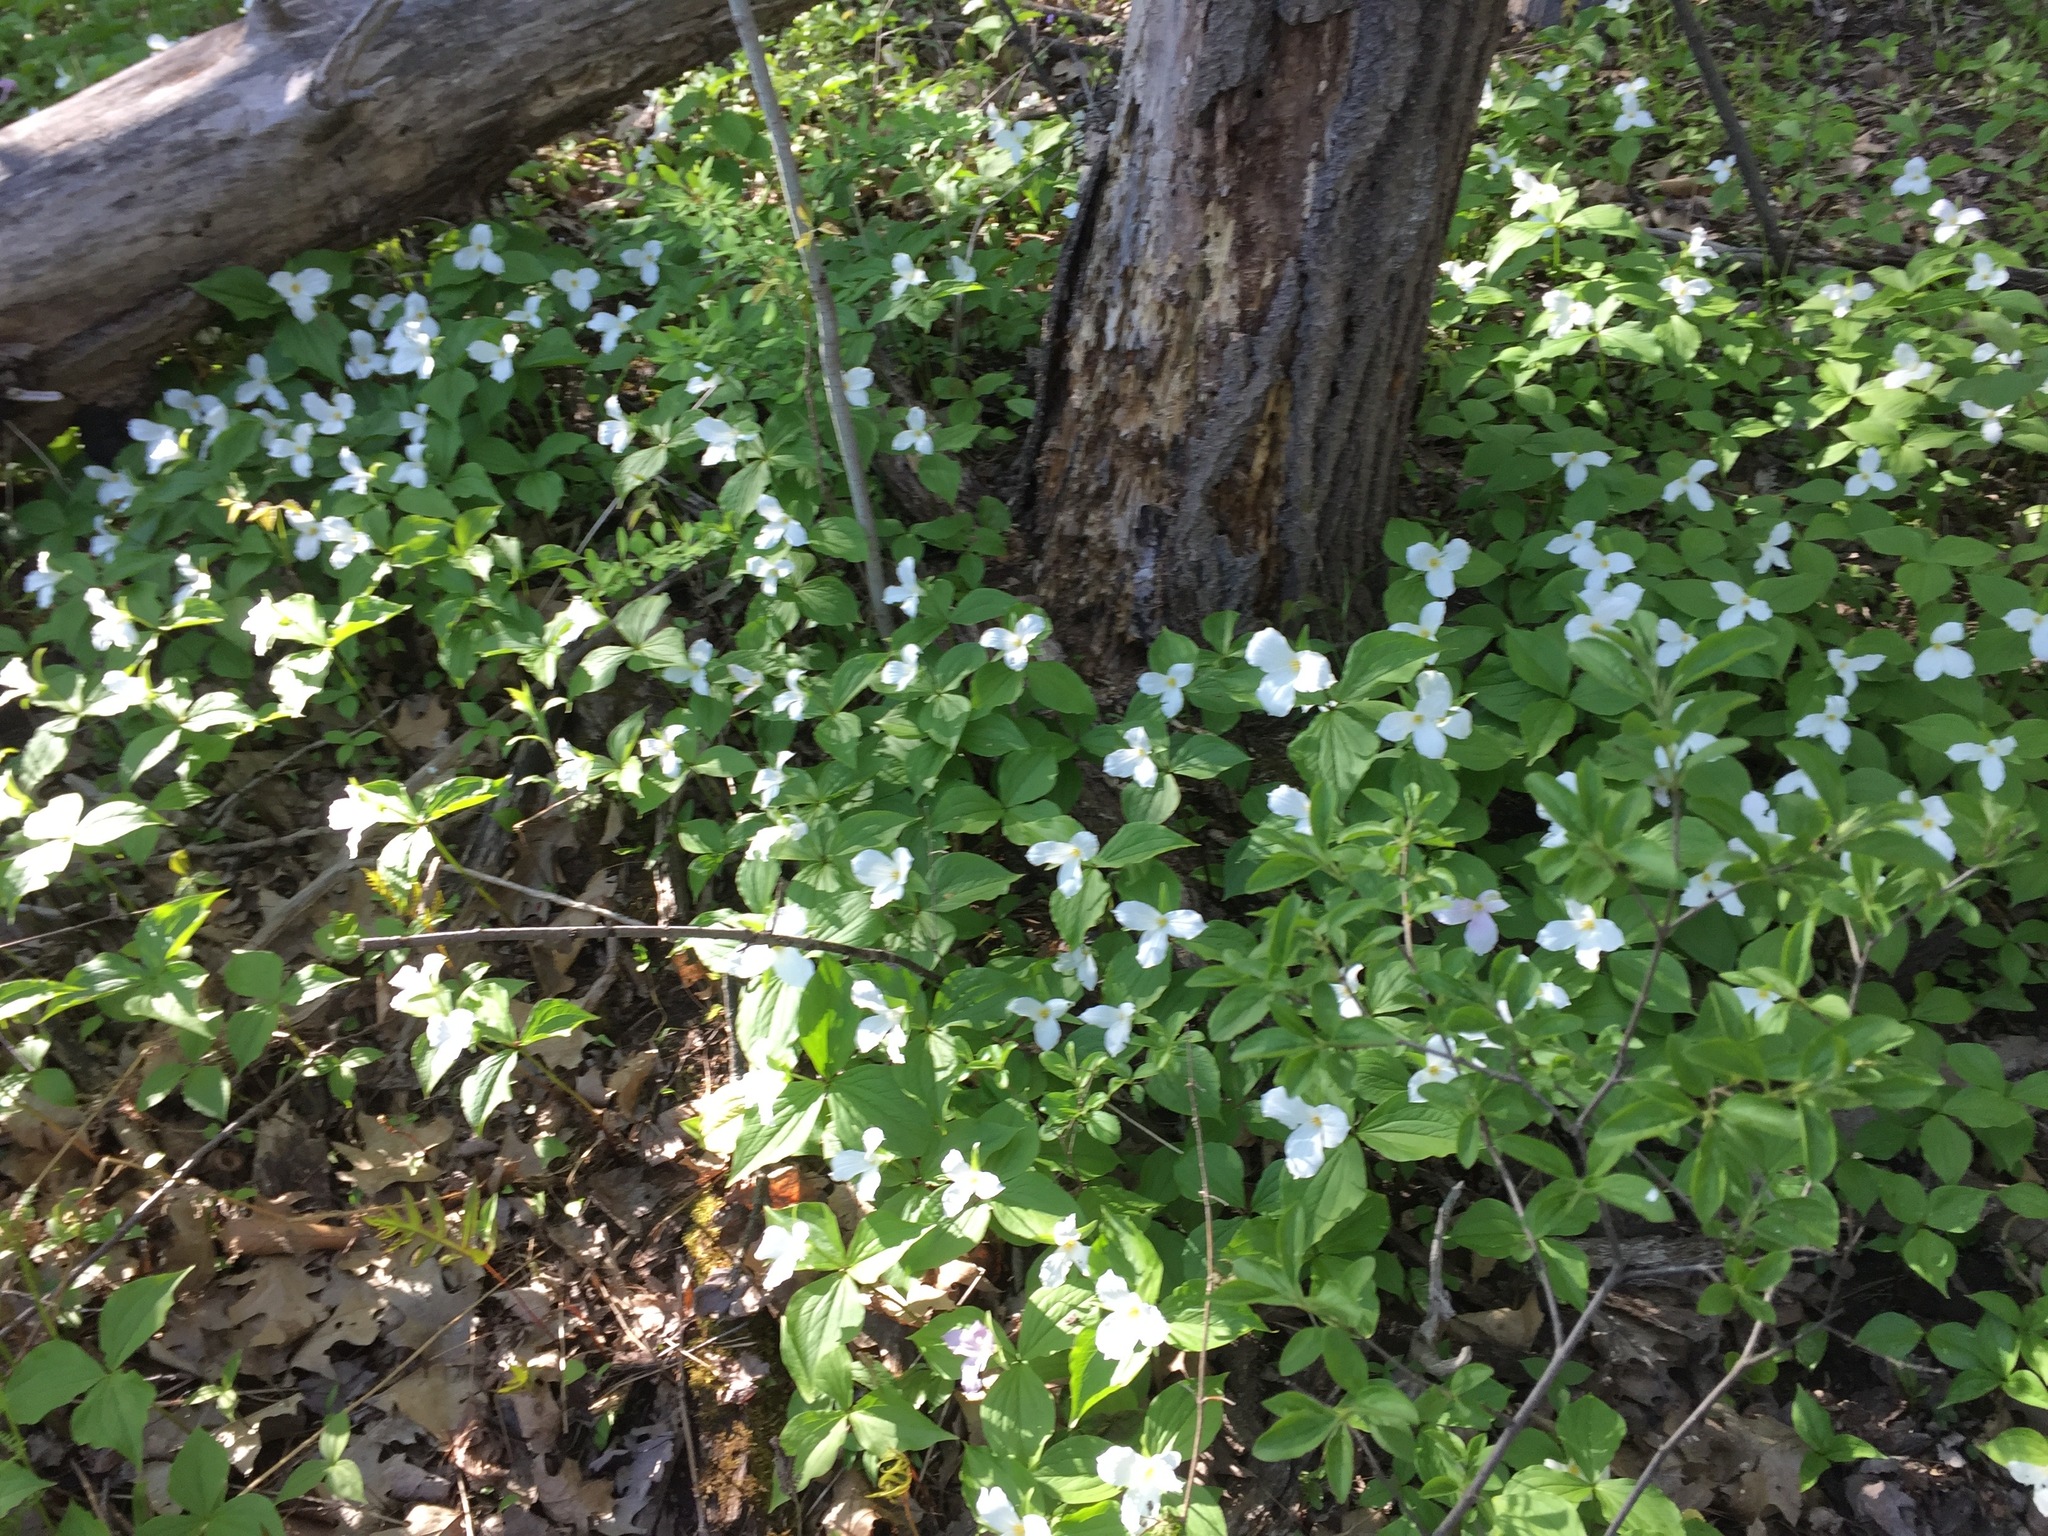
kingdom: Plantae
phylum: Tracheophyta
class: Liliopsida
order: Liliales
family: Melanthiaceae
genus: Trillium
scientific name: Trillium grandiflorum
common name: Great white trillium
